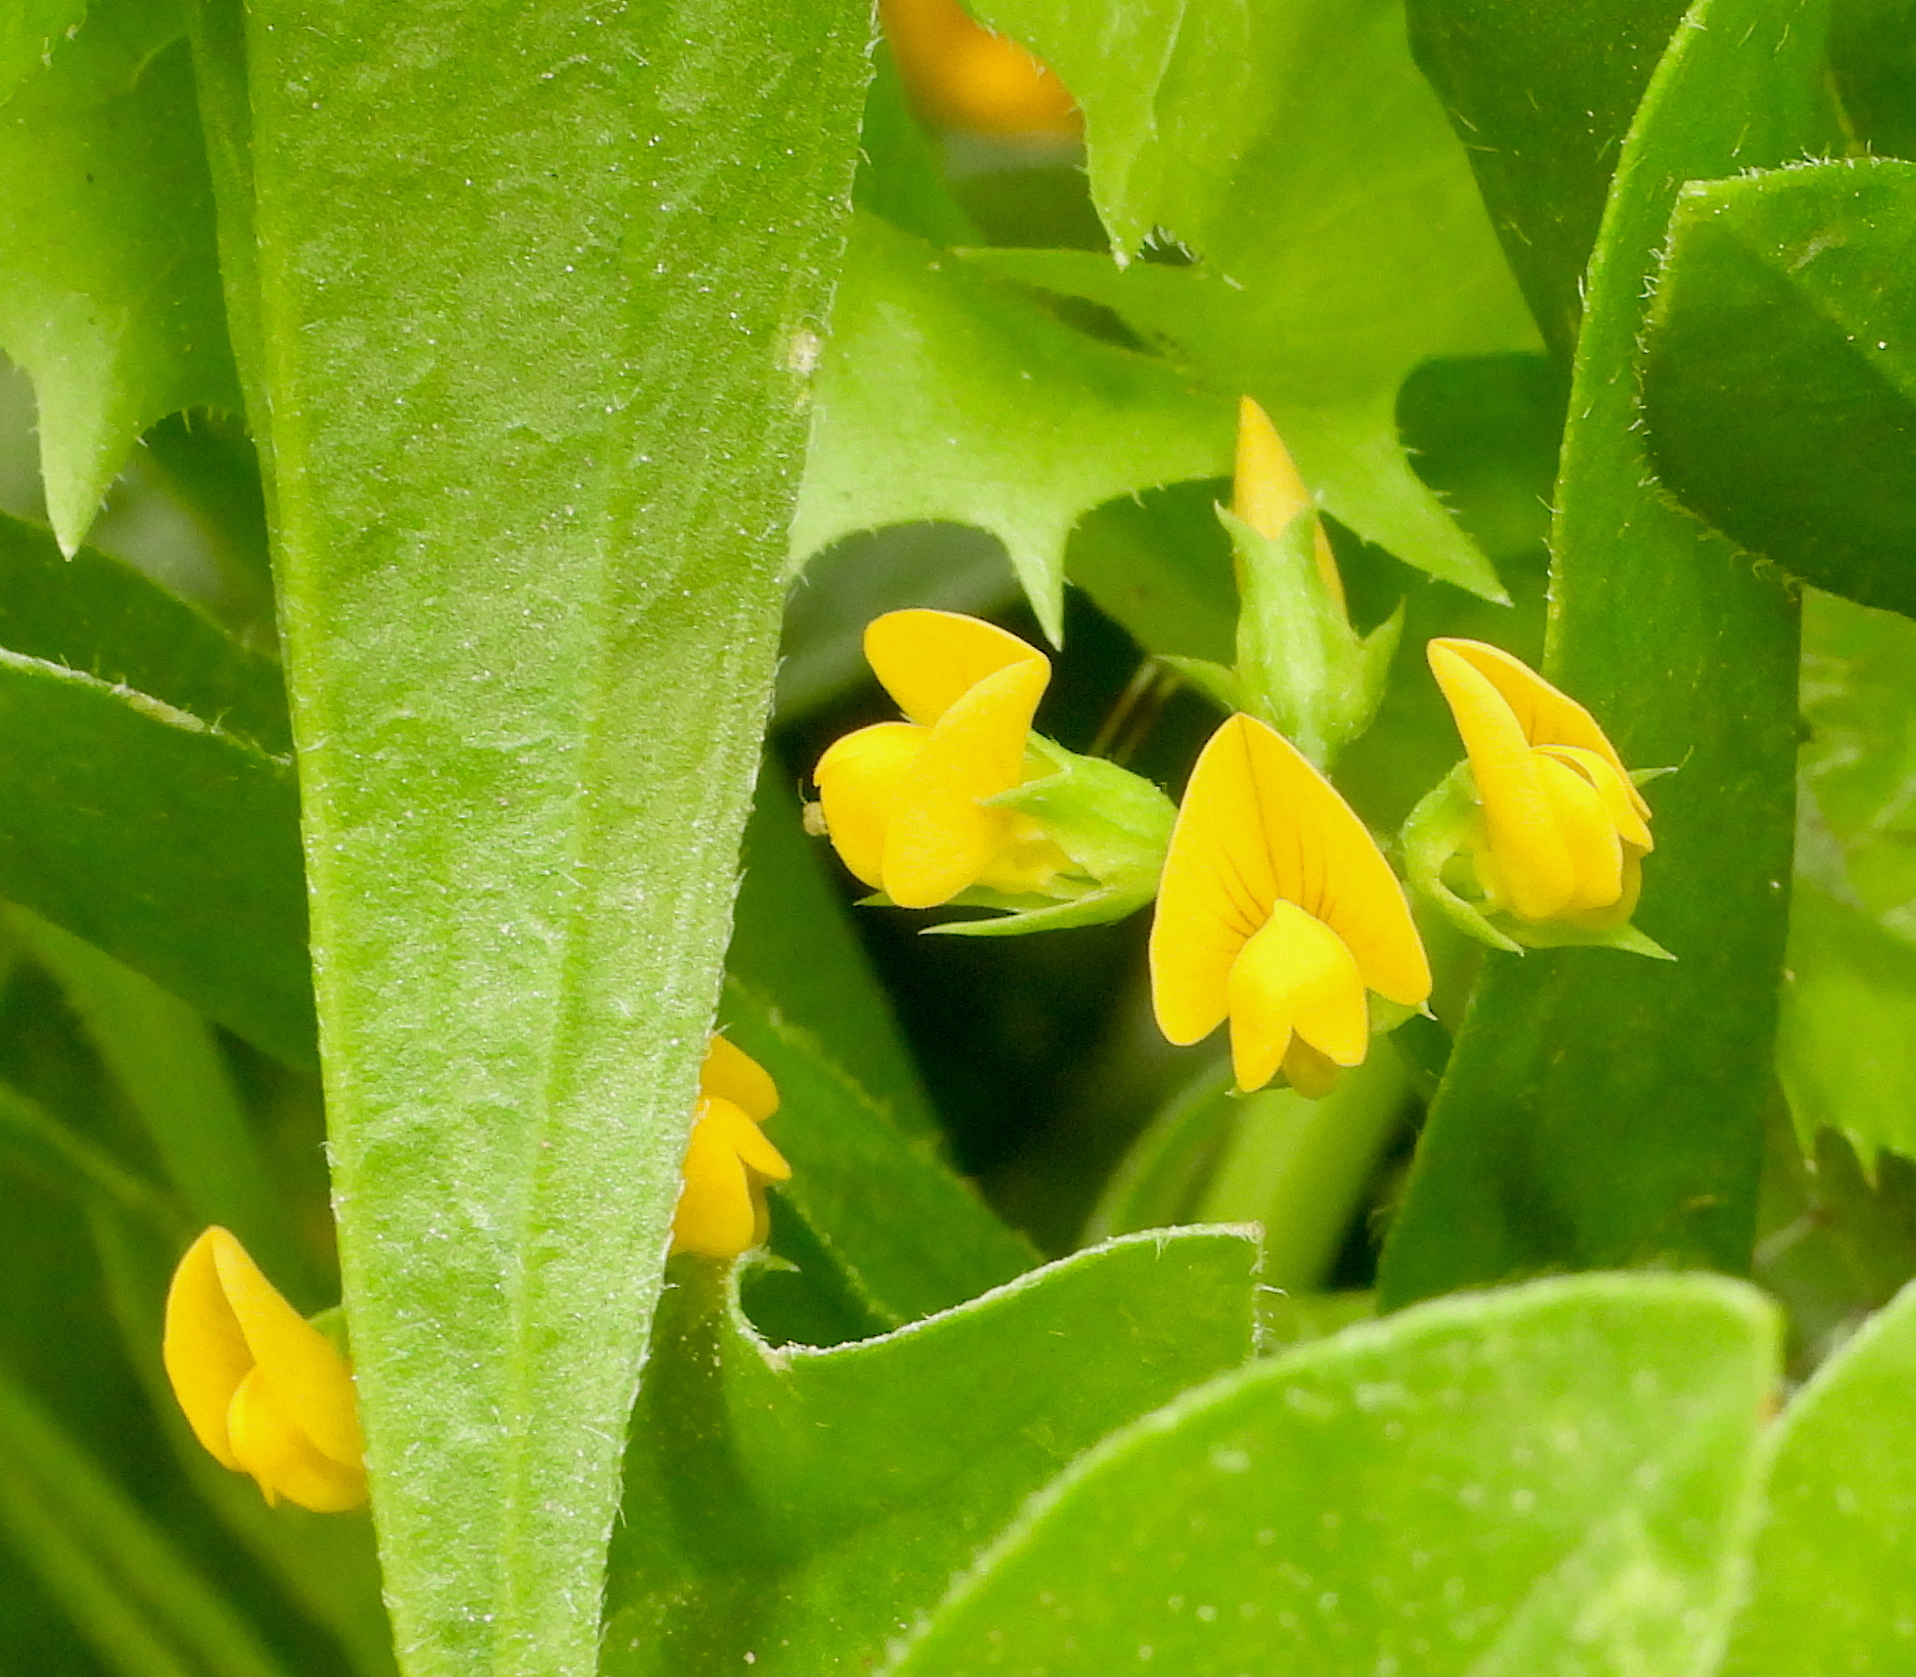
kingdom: Plantae
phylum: Tracheophyta
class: Magnoliopsida
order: Fabales
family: Fabaceae
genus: Scorpiurus
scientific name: Scorpiurus muricatus
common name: Caterpillar-plant
